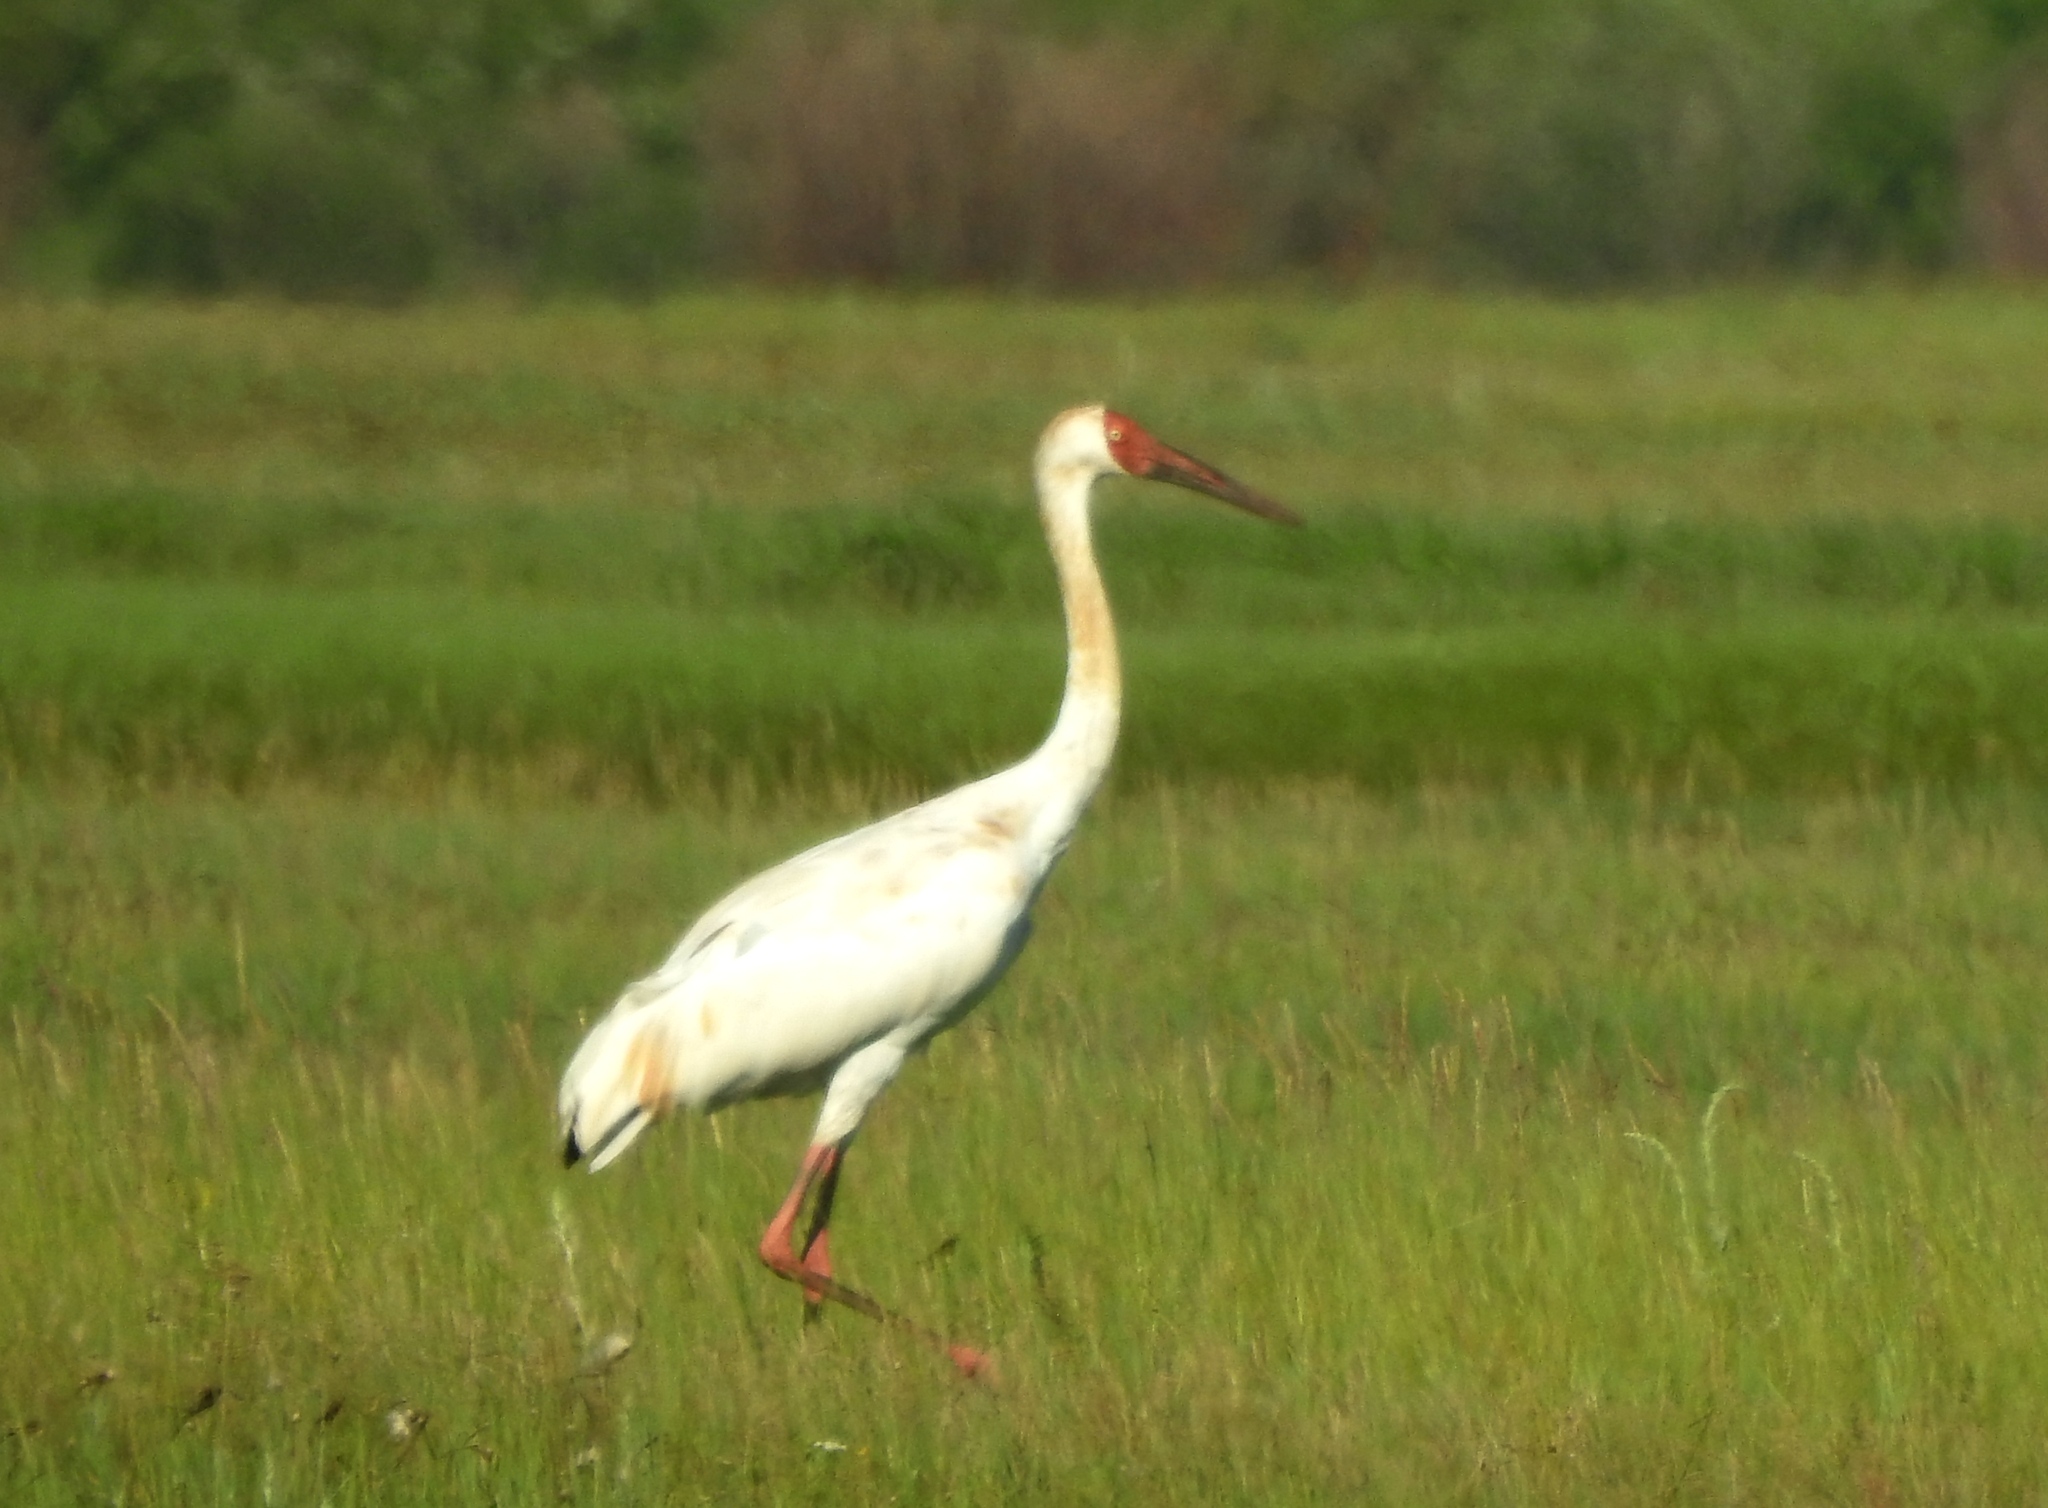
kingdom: Animalia
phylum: Chordata
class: Aves
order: Gruiformes
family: Gruidae
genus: Grus
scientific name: Grus leucogeranus
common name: Siberian crane
